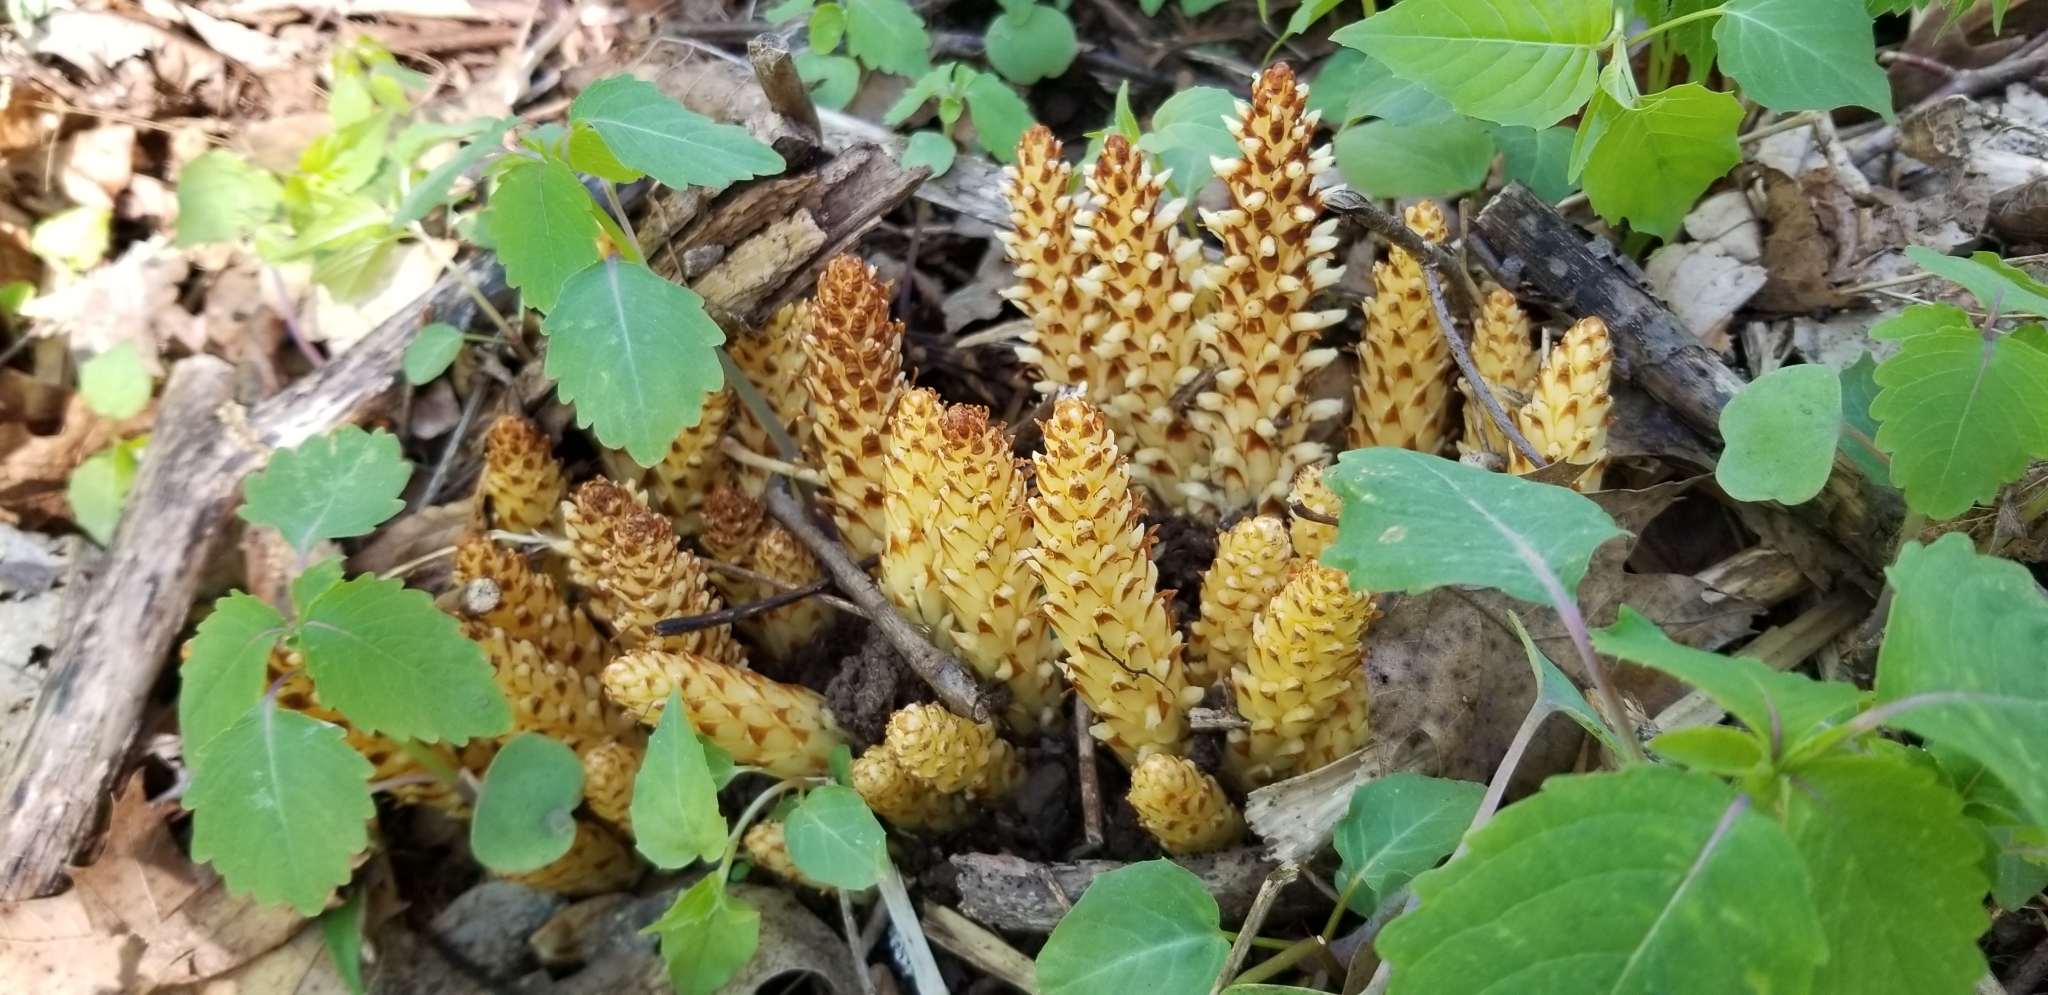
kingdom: Plantae
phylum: Tracheophyta
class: Magnoliopsida
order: Lamiales
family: Orobanchaceae
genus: Conopholis
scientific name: Conopholis americana
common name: American cancer-root
